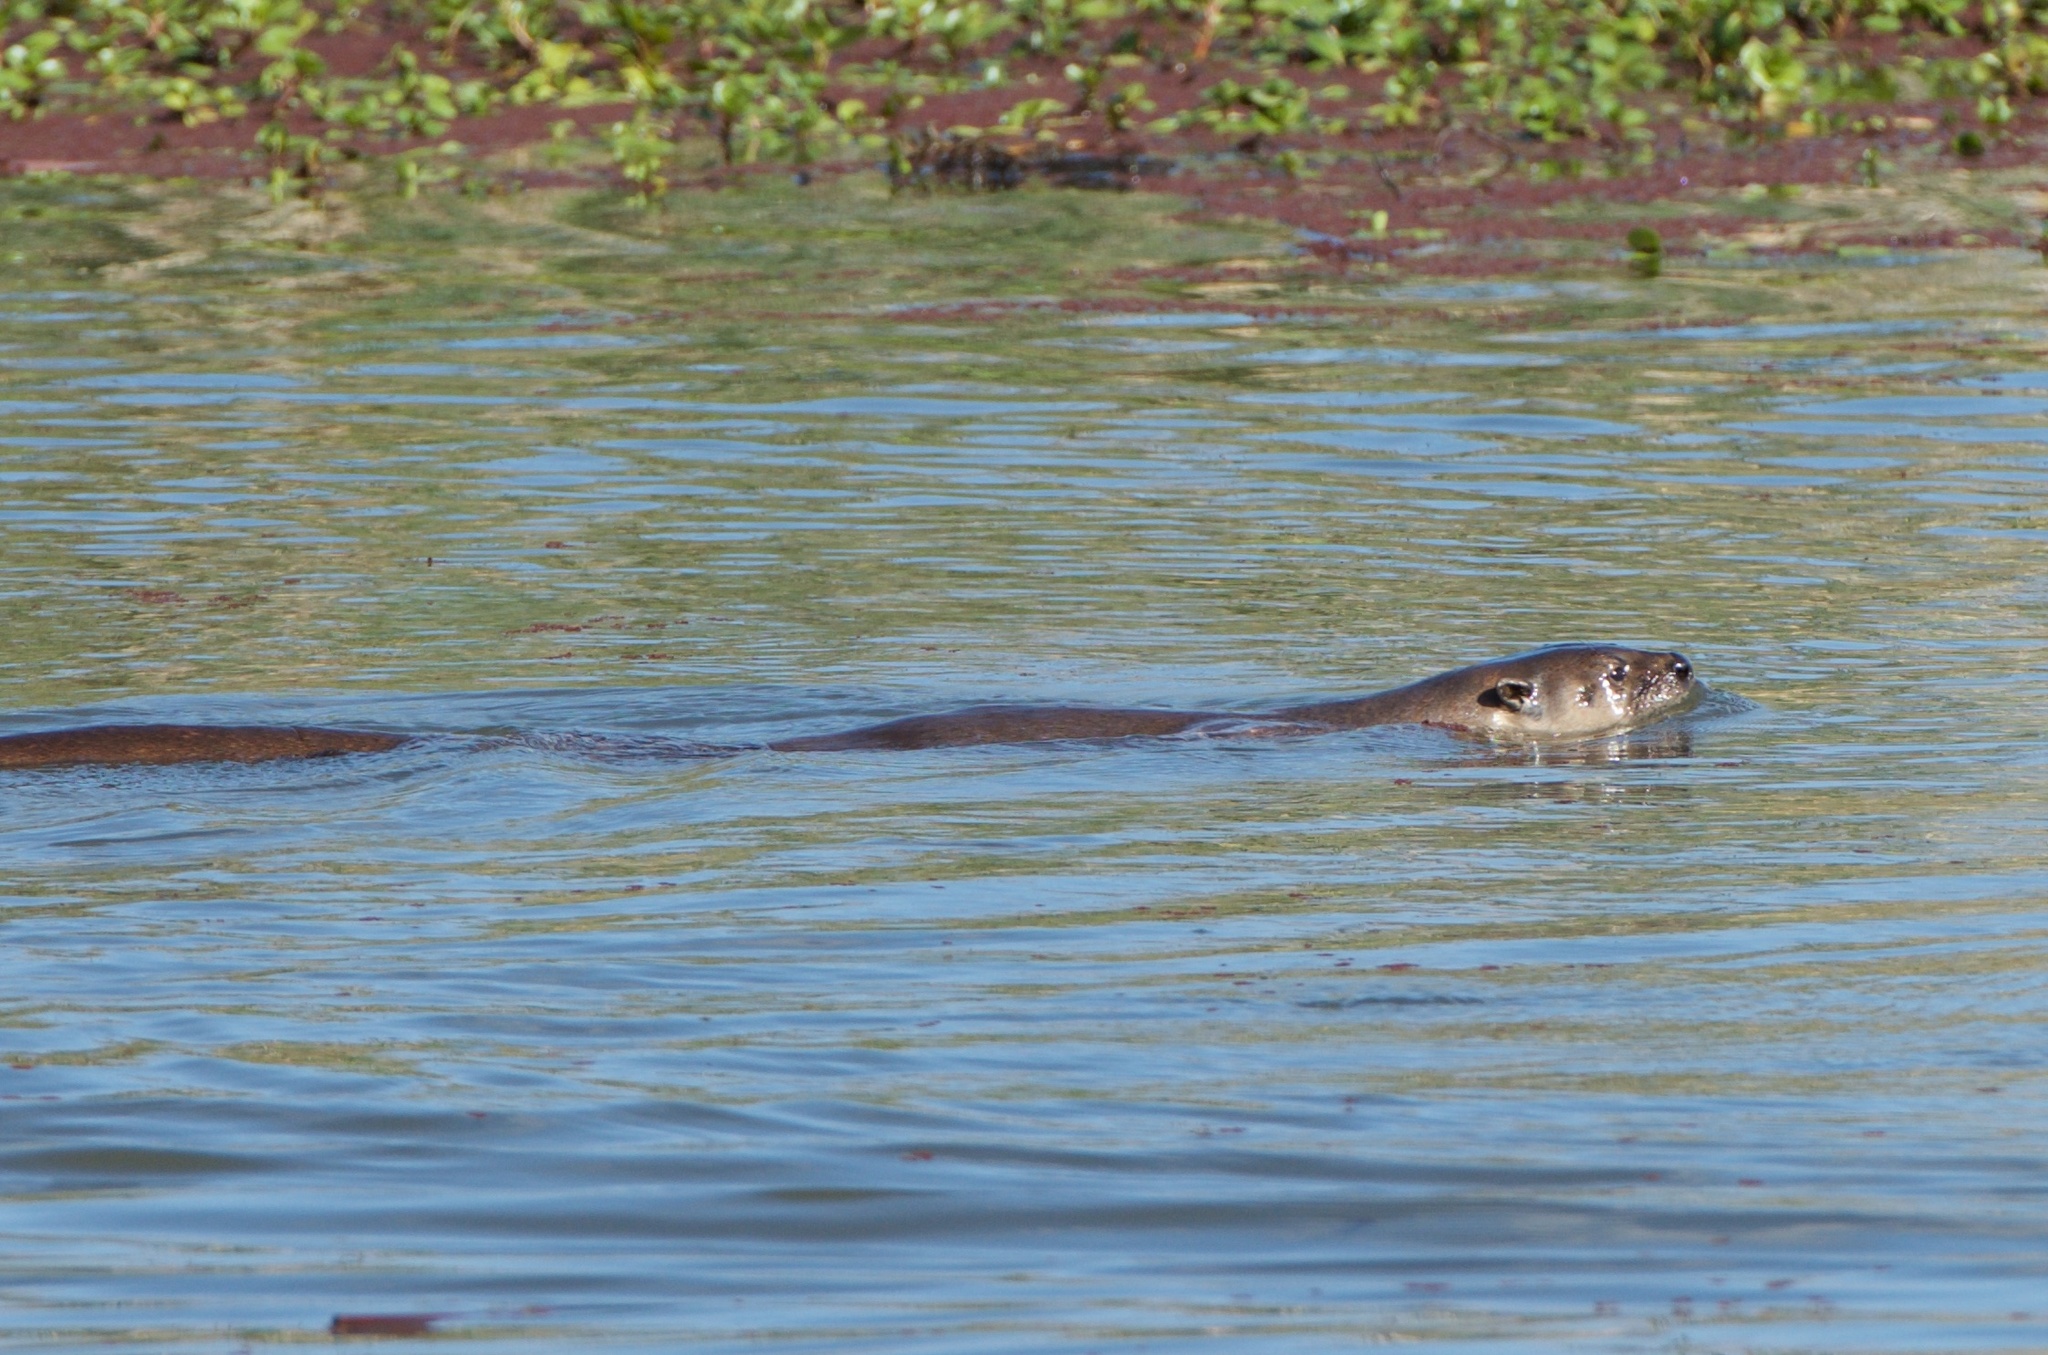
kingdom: Animalia
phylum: Chordata
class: Mammalia
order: Carnivora
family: Mustelidae
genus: Lontra
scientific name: Lontra canadensis
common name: North american river otter
